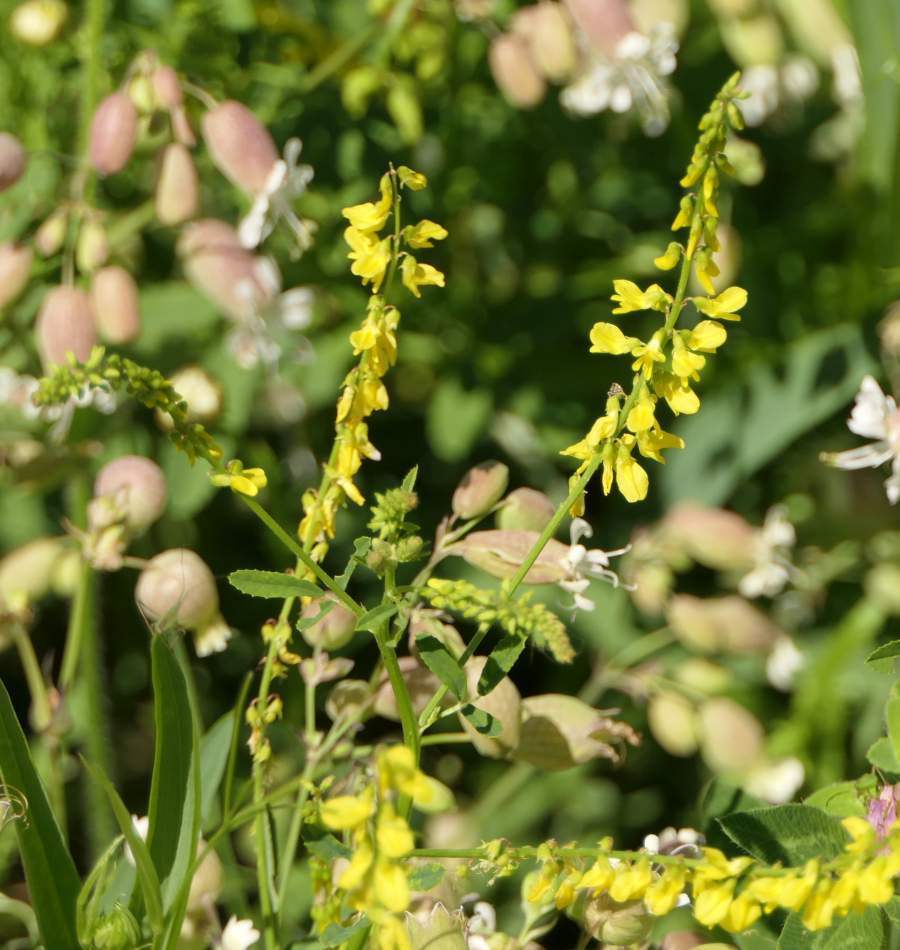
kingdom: Plantae
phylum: Tracheophyta
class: Magnoliopsida
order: Fabales
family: Fabaceae
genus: Melilotus
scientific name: Melilotus officinalis
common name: Sweetclover
